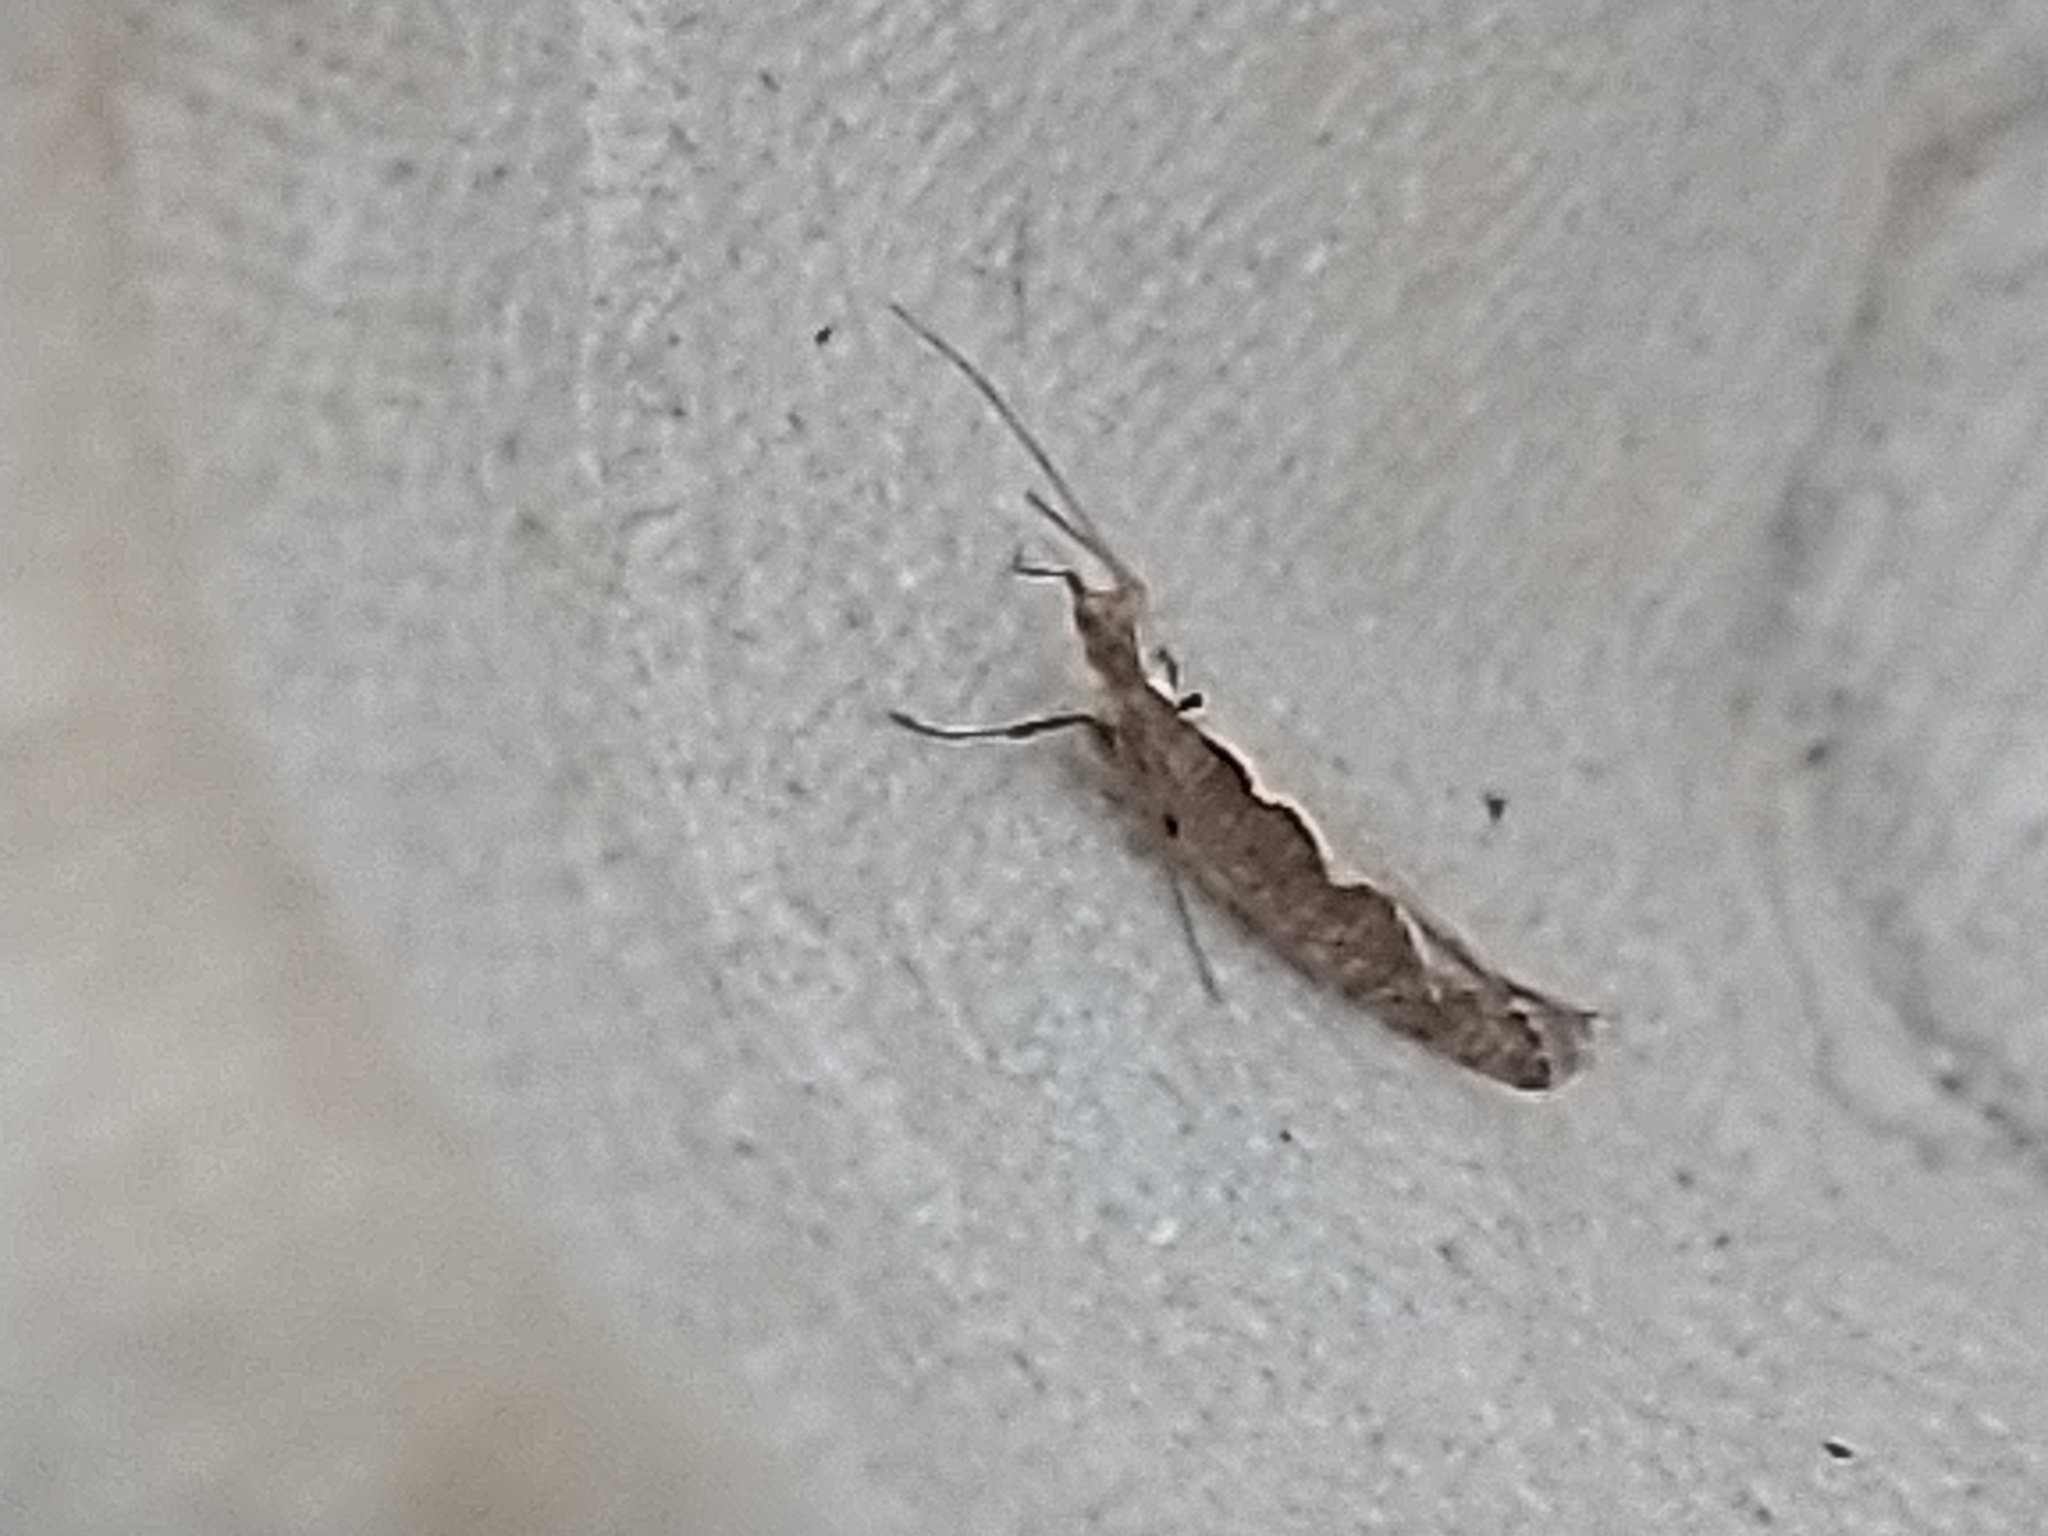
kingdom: Animalia
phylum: Arthropoda
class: Insecta
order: Lepidoptera
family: Plutellidae
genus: Plutella
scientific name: Plutella xylostella
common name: Diamond-back moth
